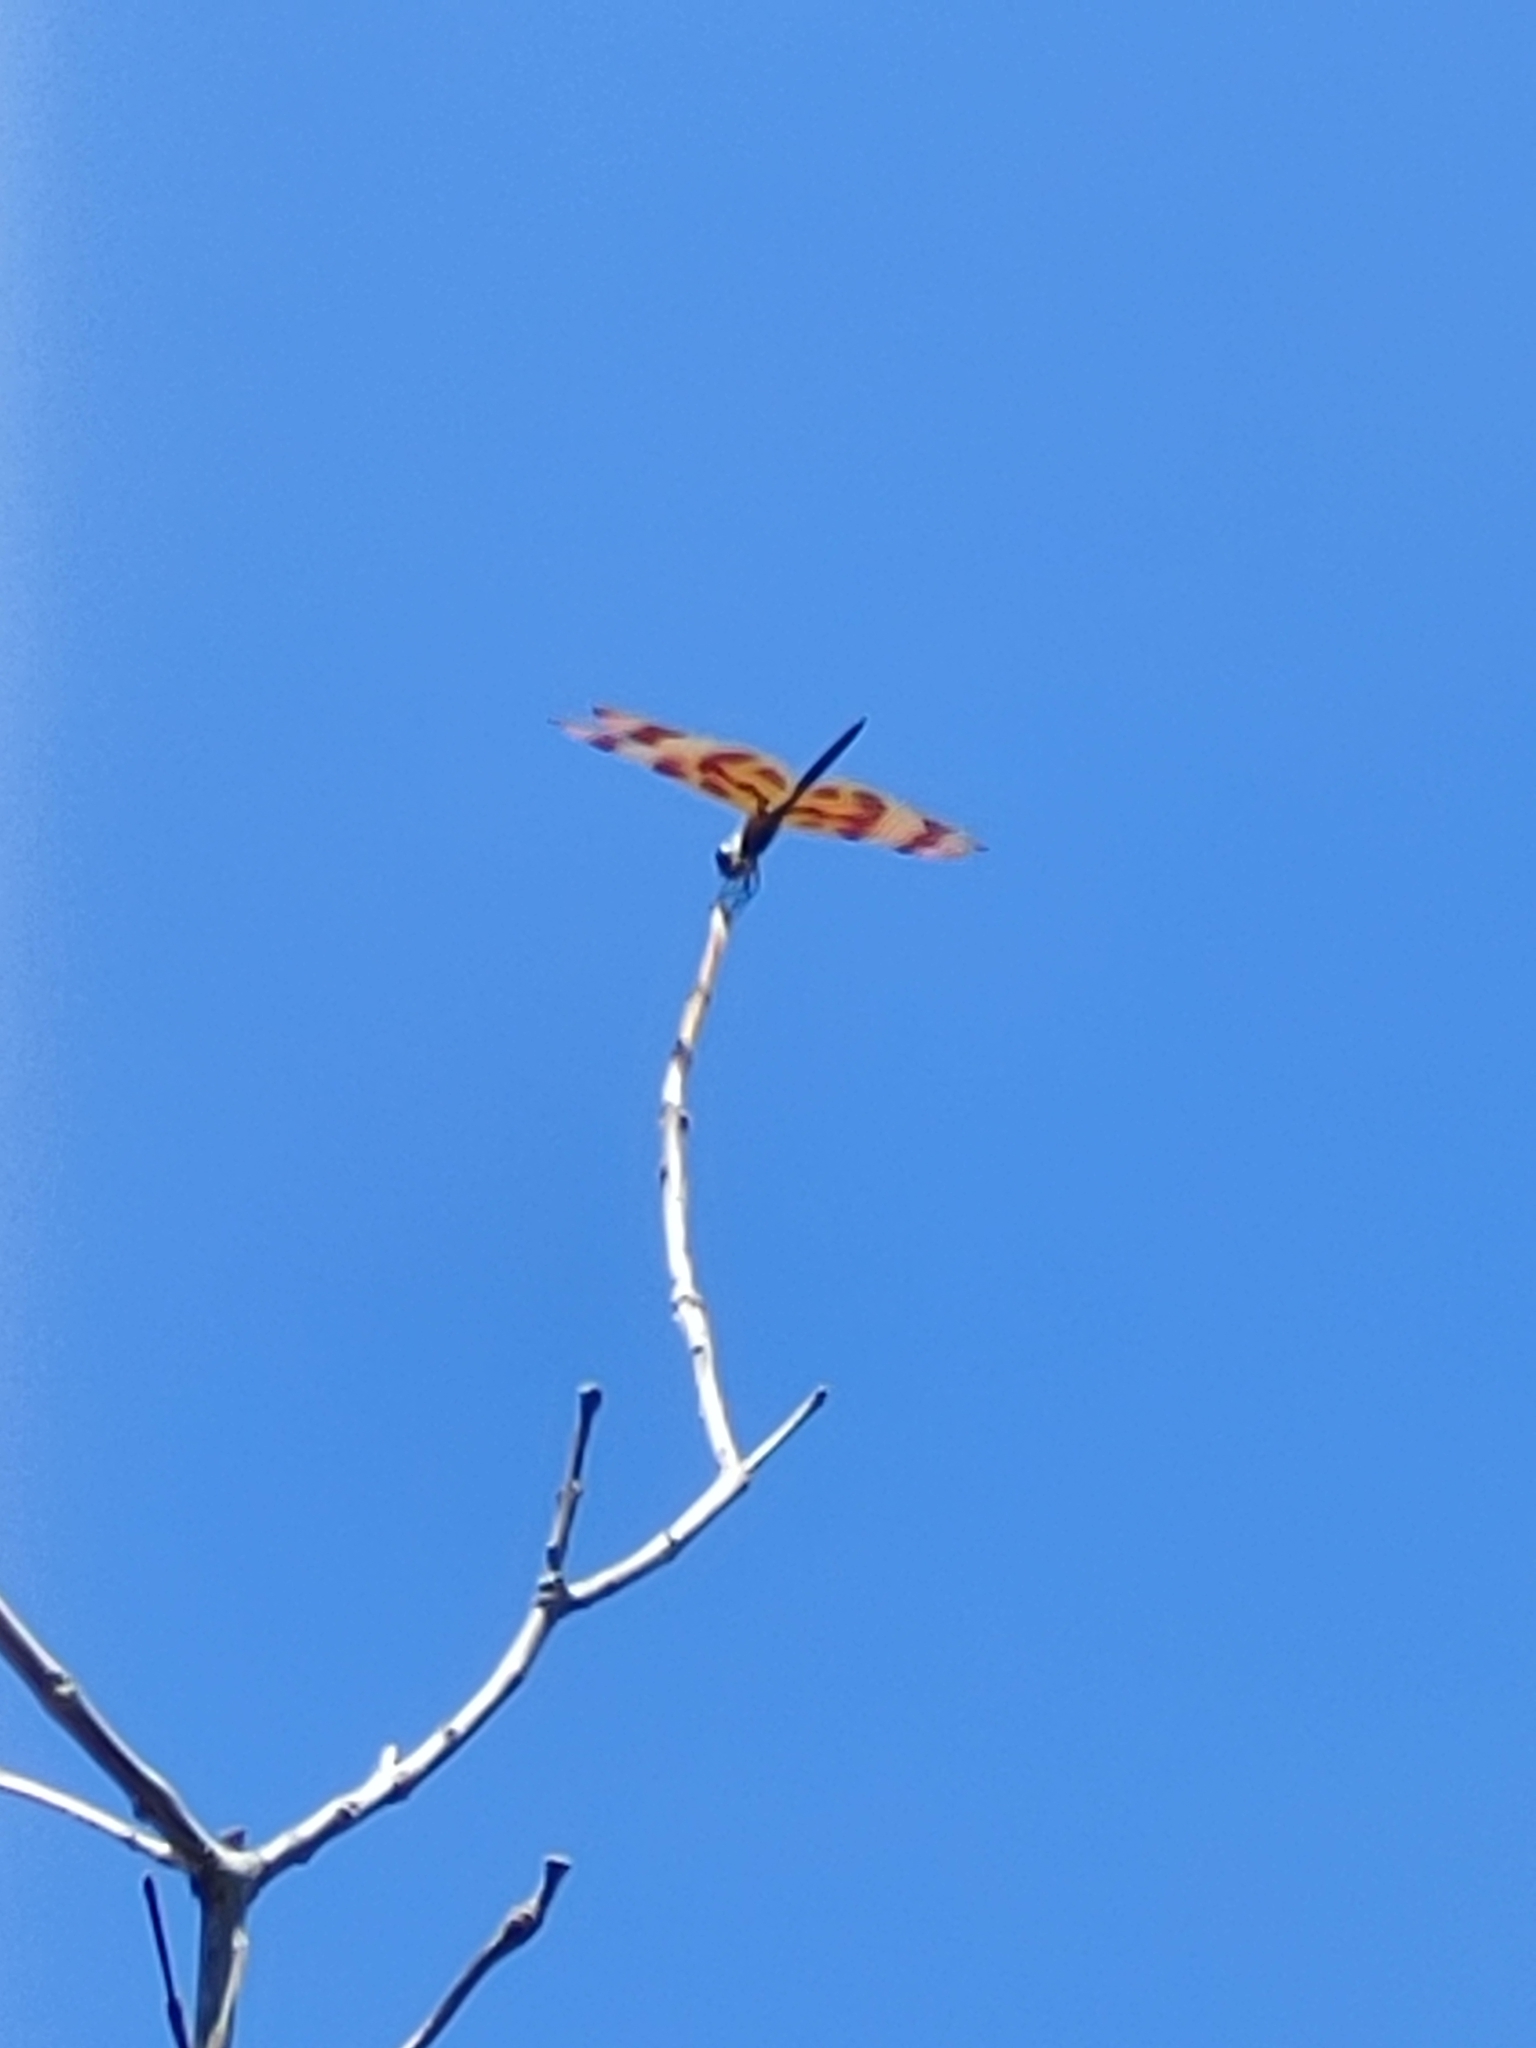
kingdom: Animalia
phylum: Arthropoda
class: Insecta
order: Odonata
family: Libellulidae
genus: Celithemis
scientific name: Celithemis eponina
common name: Halloween pennant
